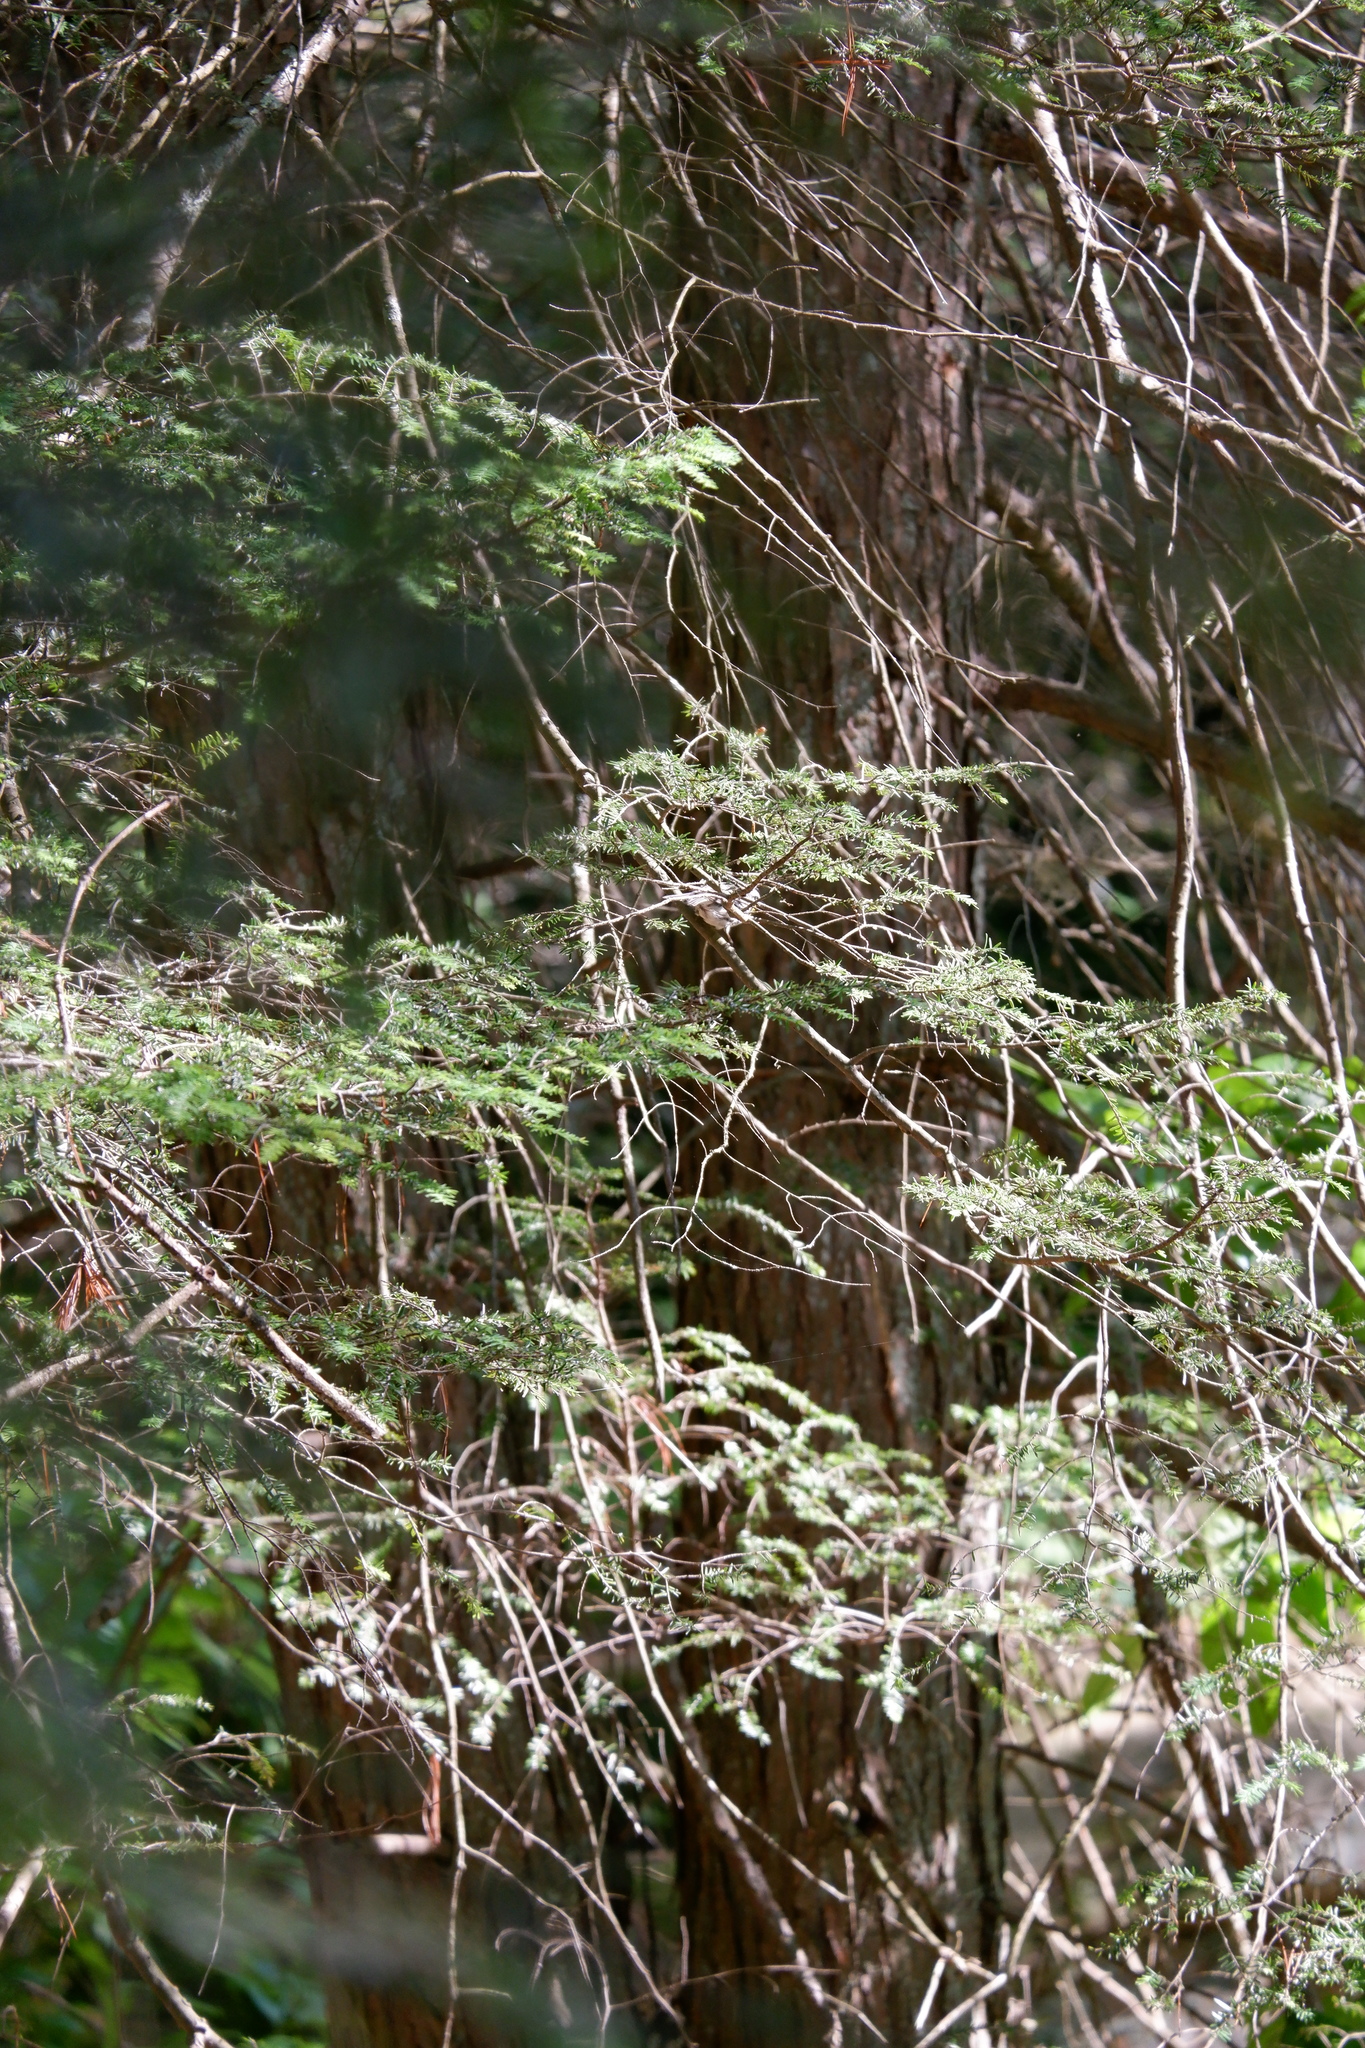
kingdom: Animalia
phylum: Chordata
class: Aves
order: Passeriformes
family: Parulidae
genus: Setophaga
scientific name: Setophaga dominica
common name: Yellow-throated warbler
